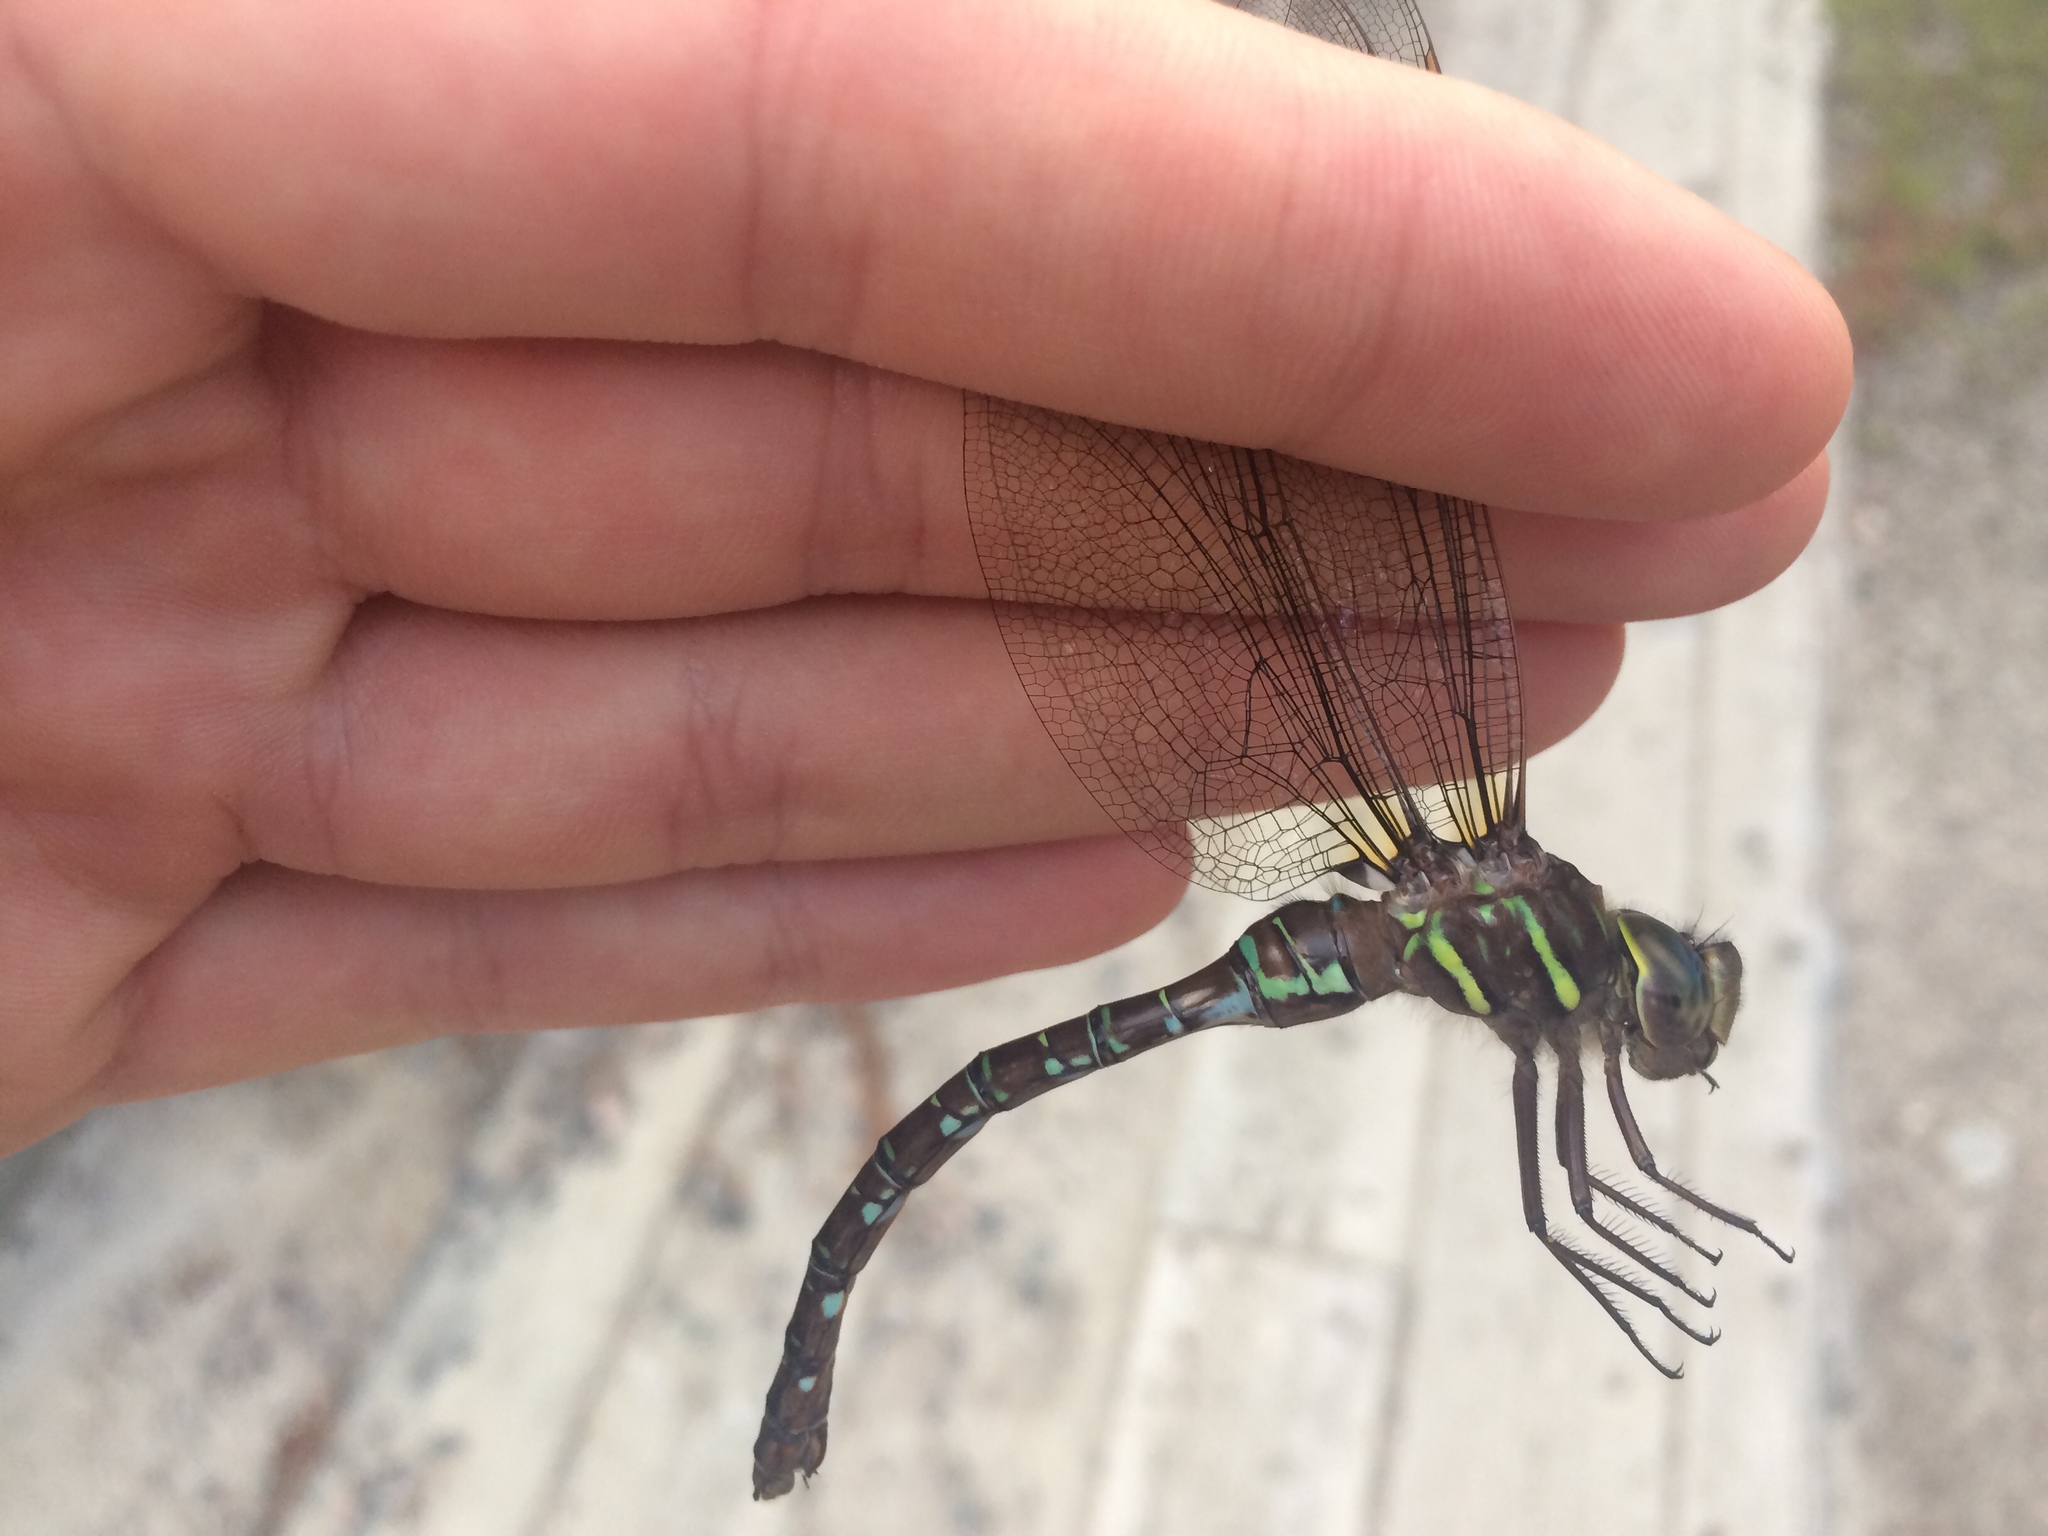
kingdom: Animalia
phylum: Arthropoda
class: Insecta
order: Odonata
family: Aeshnidae
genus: Aeshna
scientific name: Aeshna umbrosa
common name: Shadow darner
